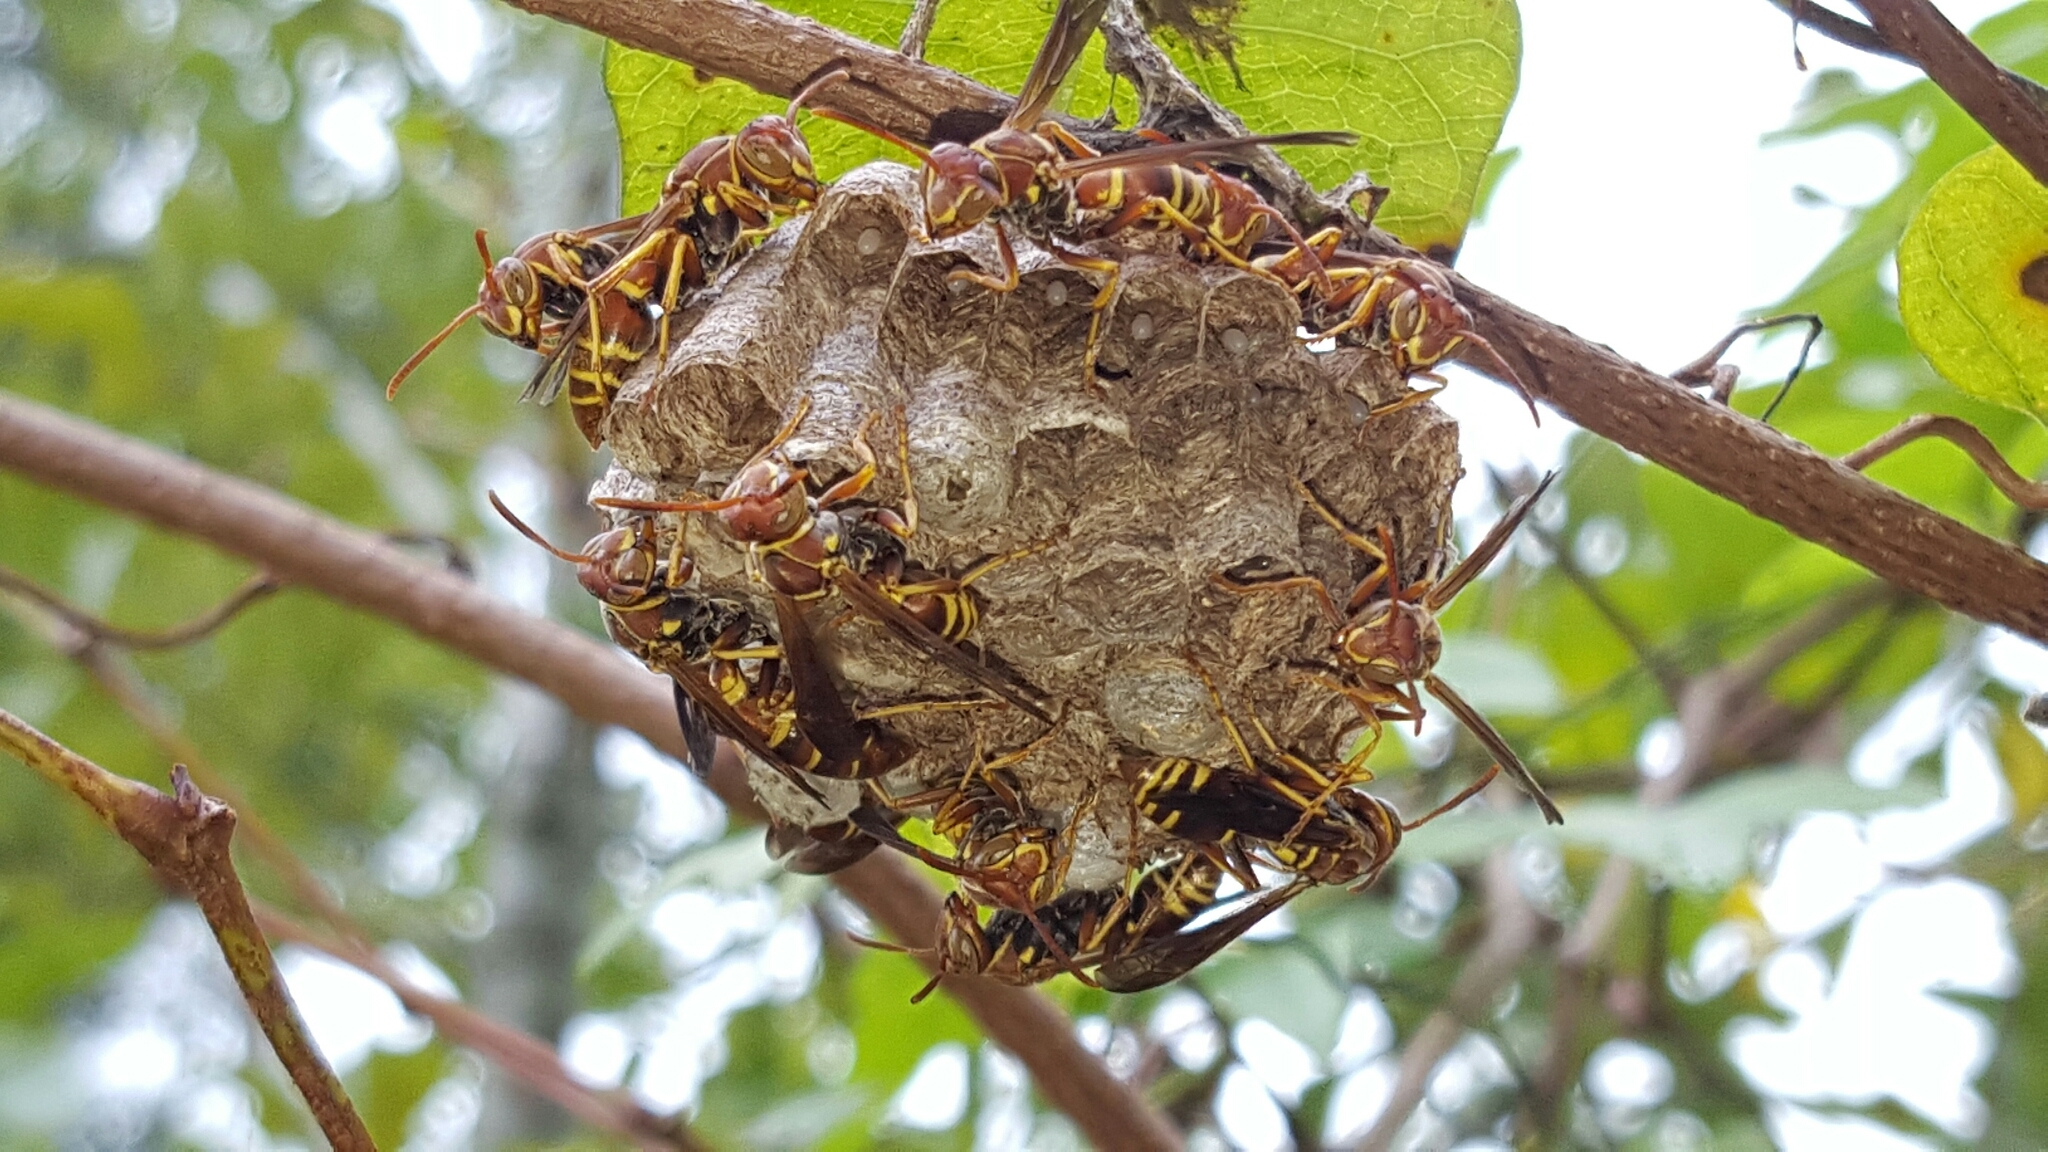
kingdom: Animalia
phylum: Arthropoda
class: Insecta
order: Hymenoptera
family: Eumenidae
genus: Polistes
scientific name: Polistes dorsalis
